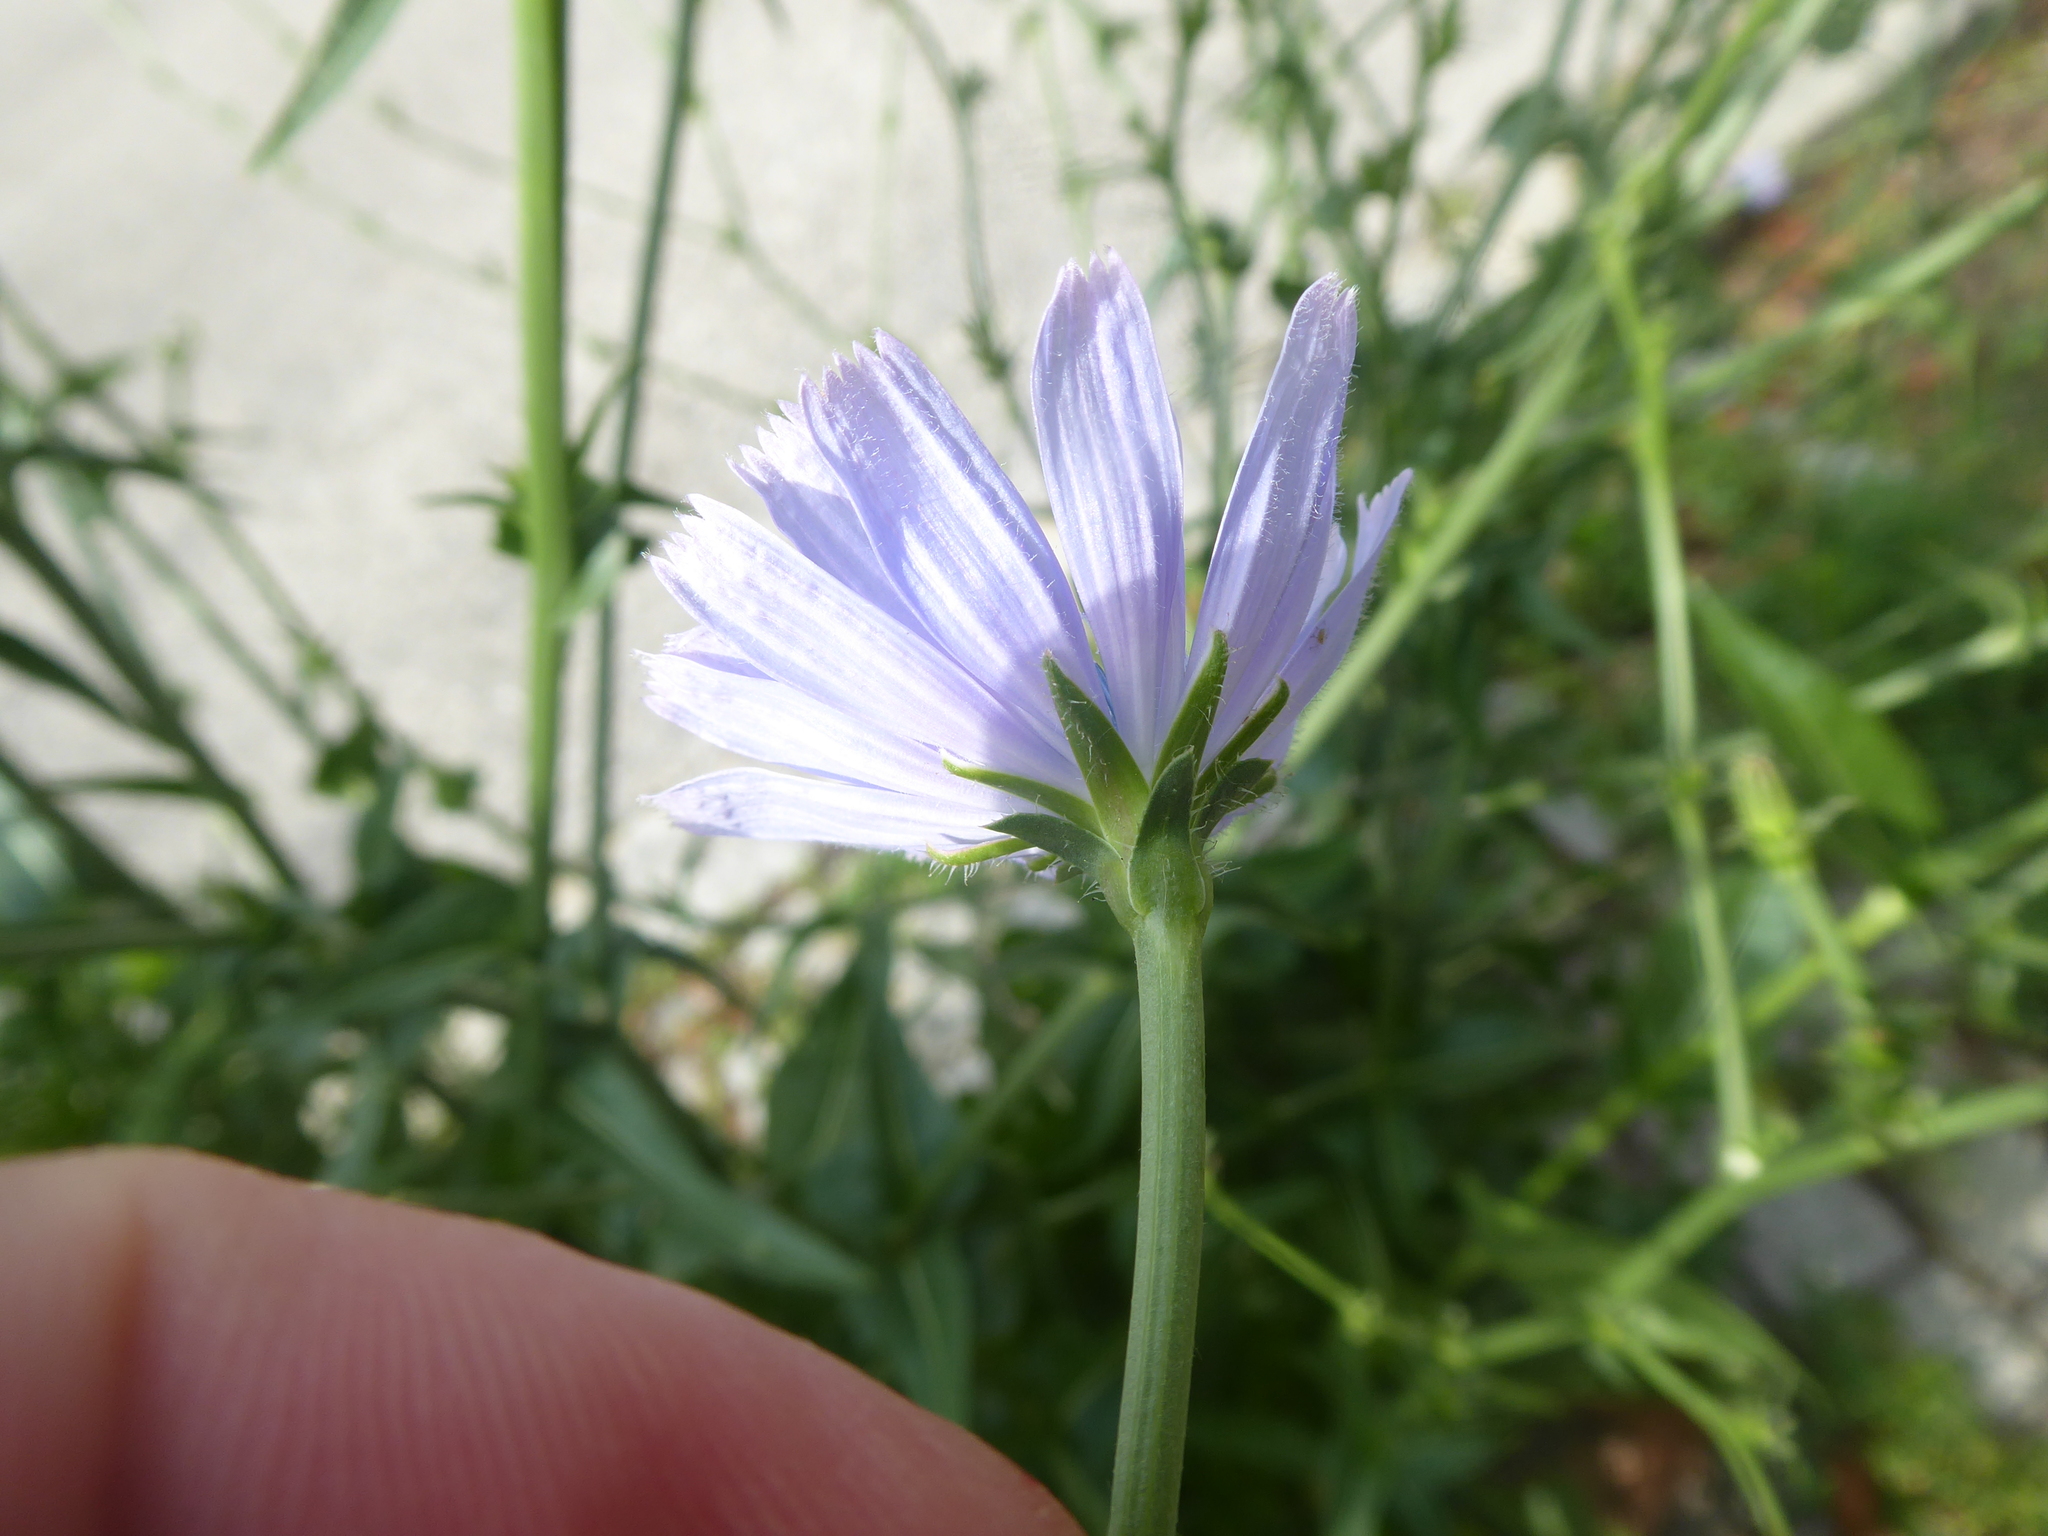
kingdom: Plantae
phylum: Tracheophyta
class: Magnoliopsida
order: Asterales
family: Asteraceae
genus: Cichorium
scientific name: Cichorium intybus
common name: Chicory
